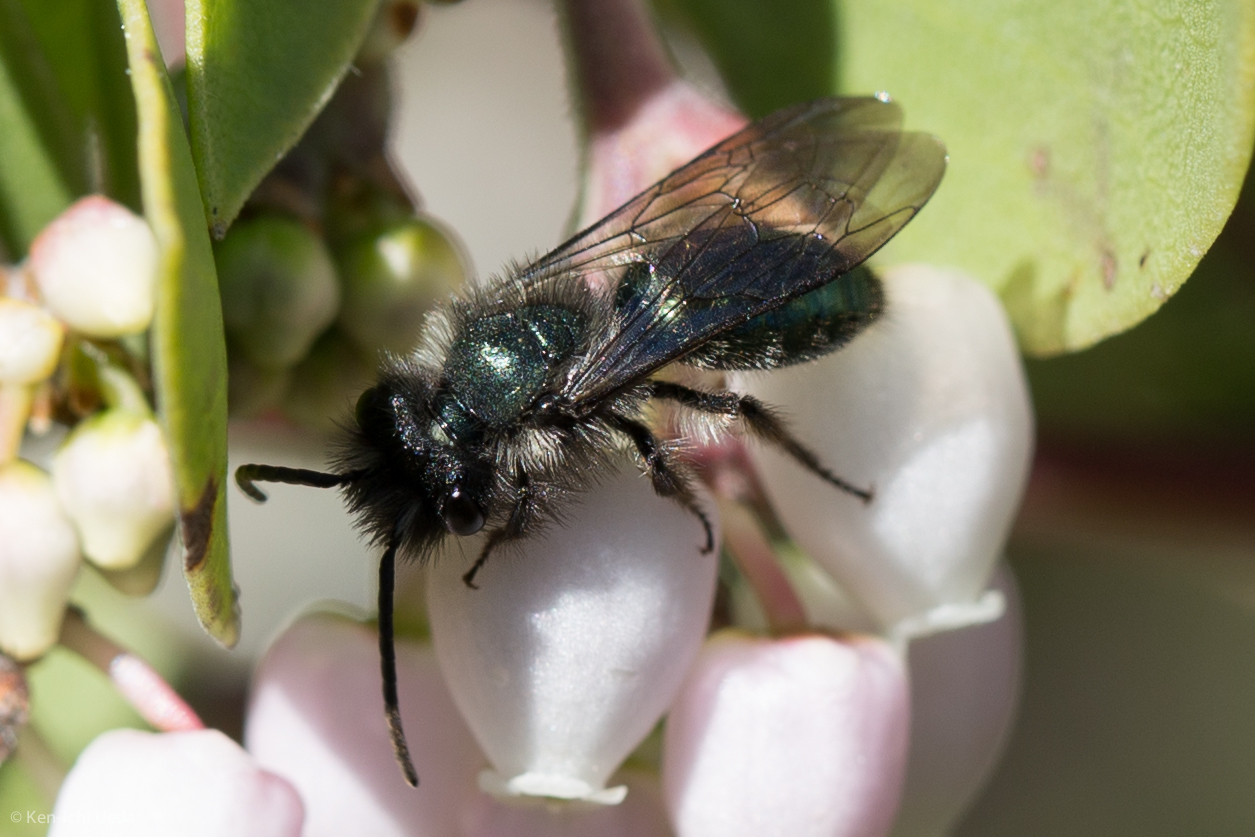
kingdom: Animalia
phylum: Arthropoda
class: Insecta
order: Hymenoptera
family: Andrenidae
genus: Andrena
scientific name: Andrena cerasifolii
